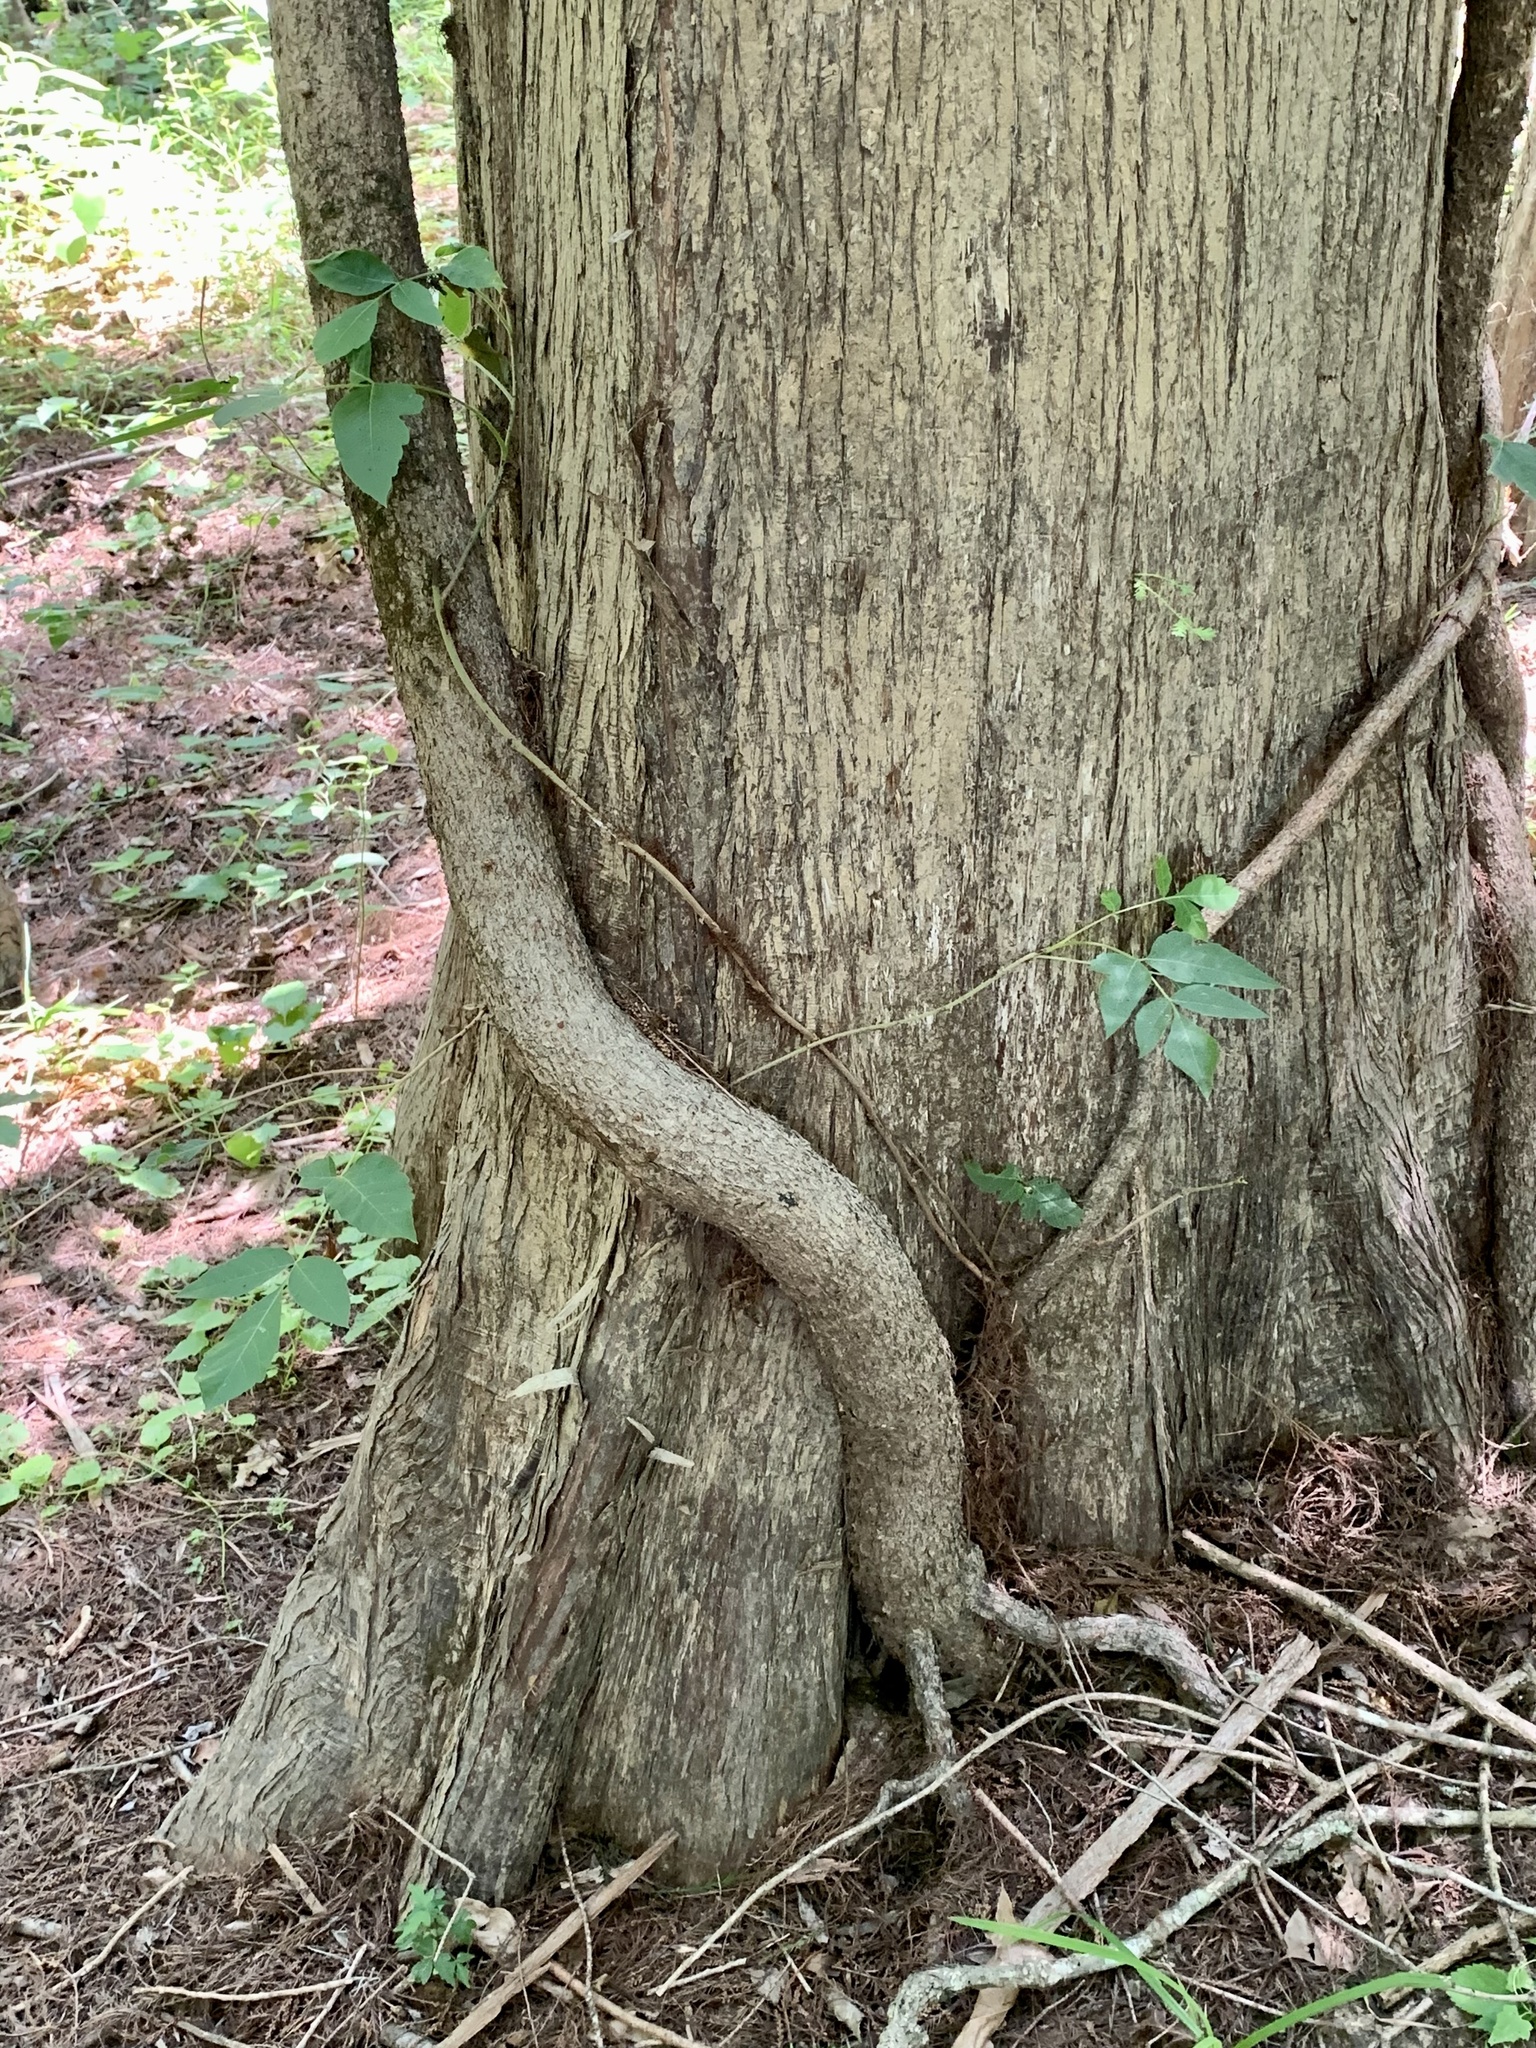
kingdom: Plantae
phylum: Tracheophyta
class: Magnoliopsida
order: Sapindales
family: Anacardiaceae
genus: Toxicodendron
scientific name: Toxicodendron radicans
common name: Poison ivy
